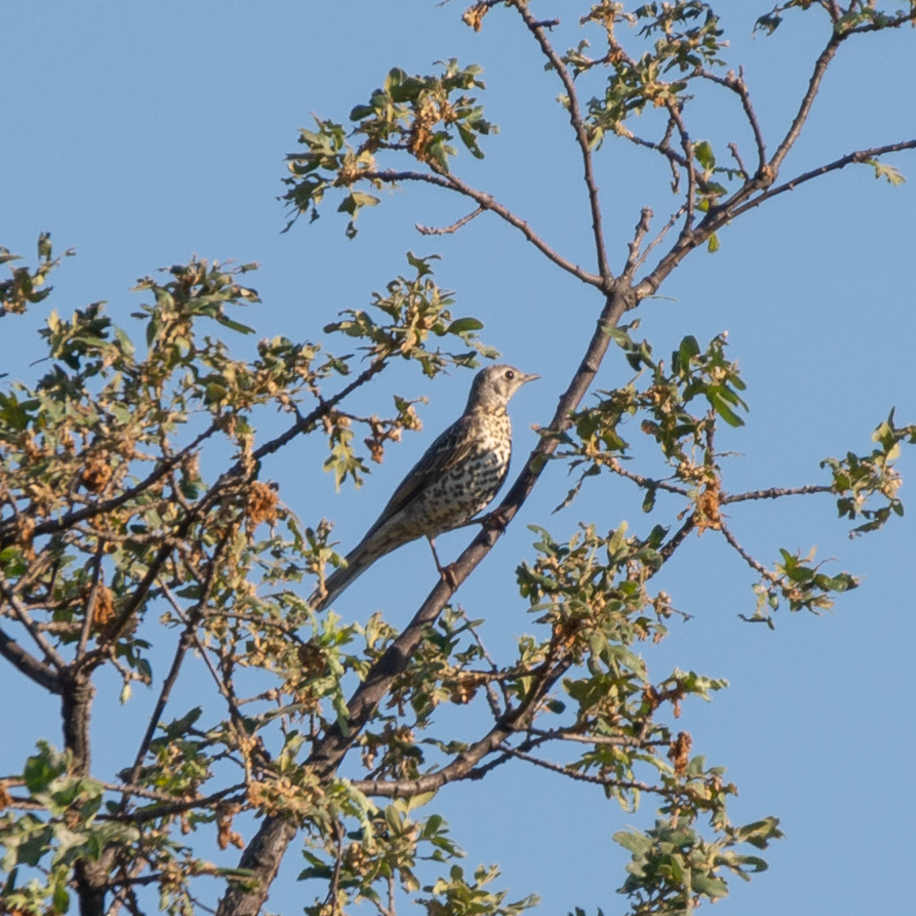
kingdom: Animalia
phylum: Chordata
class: Aves
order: Passeriformes
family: Turdidae
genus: Turdus
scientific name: Turdus viscivorus
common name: Mistle thrush
